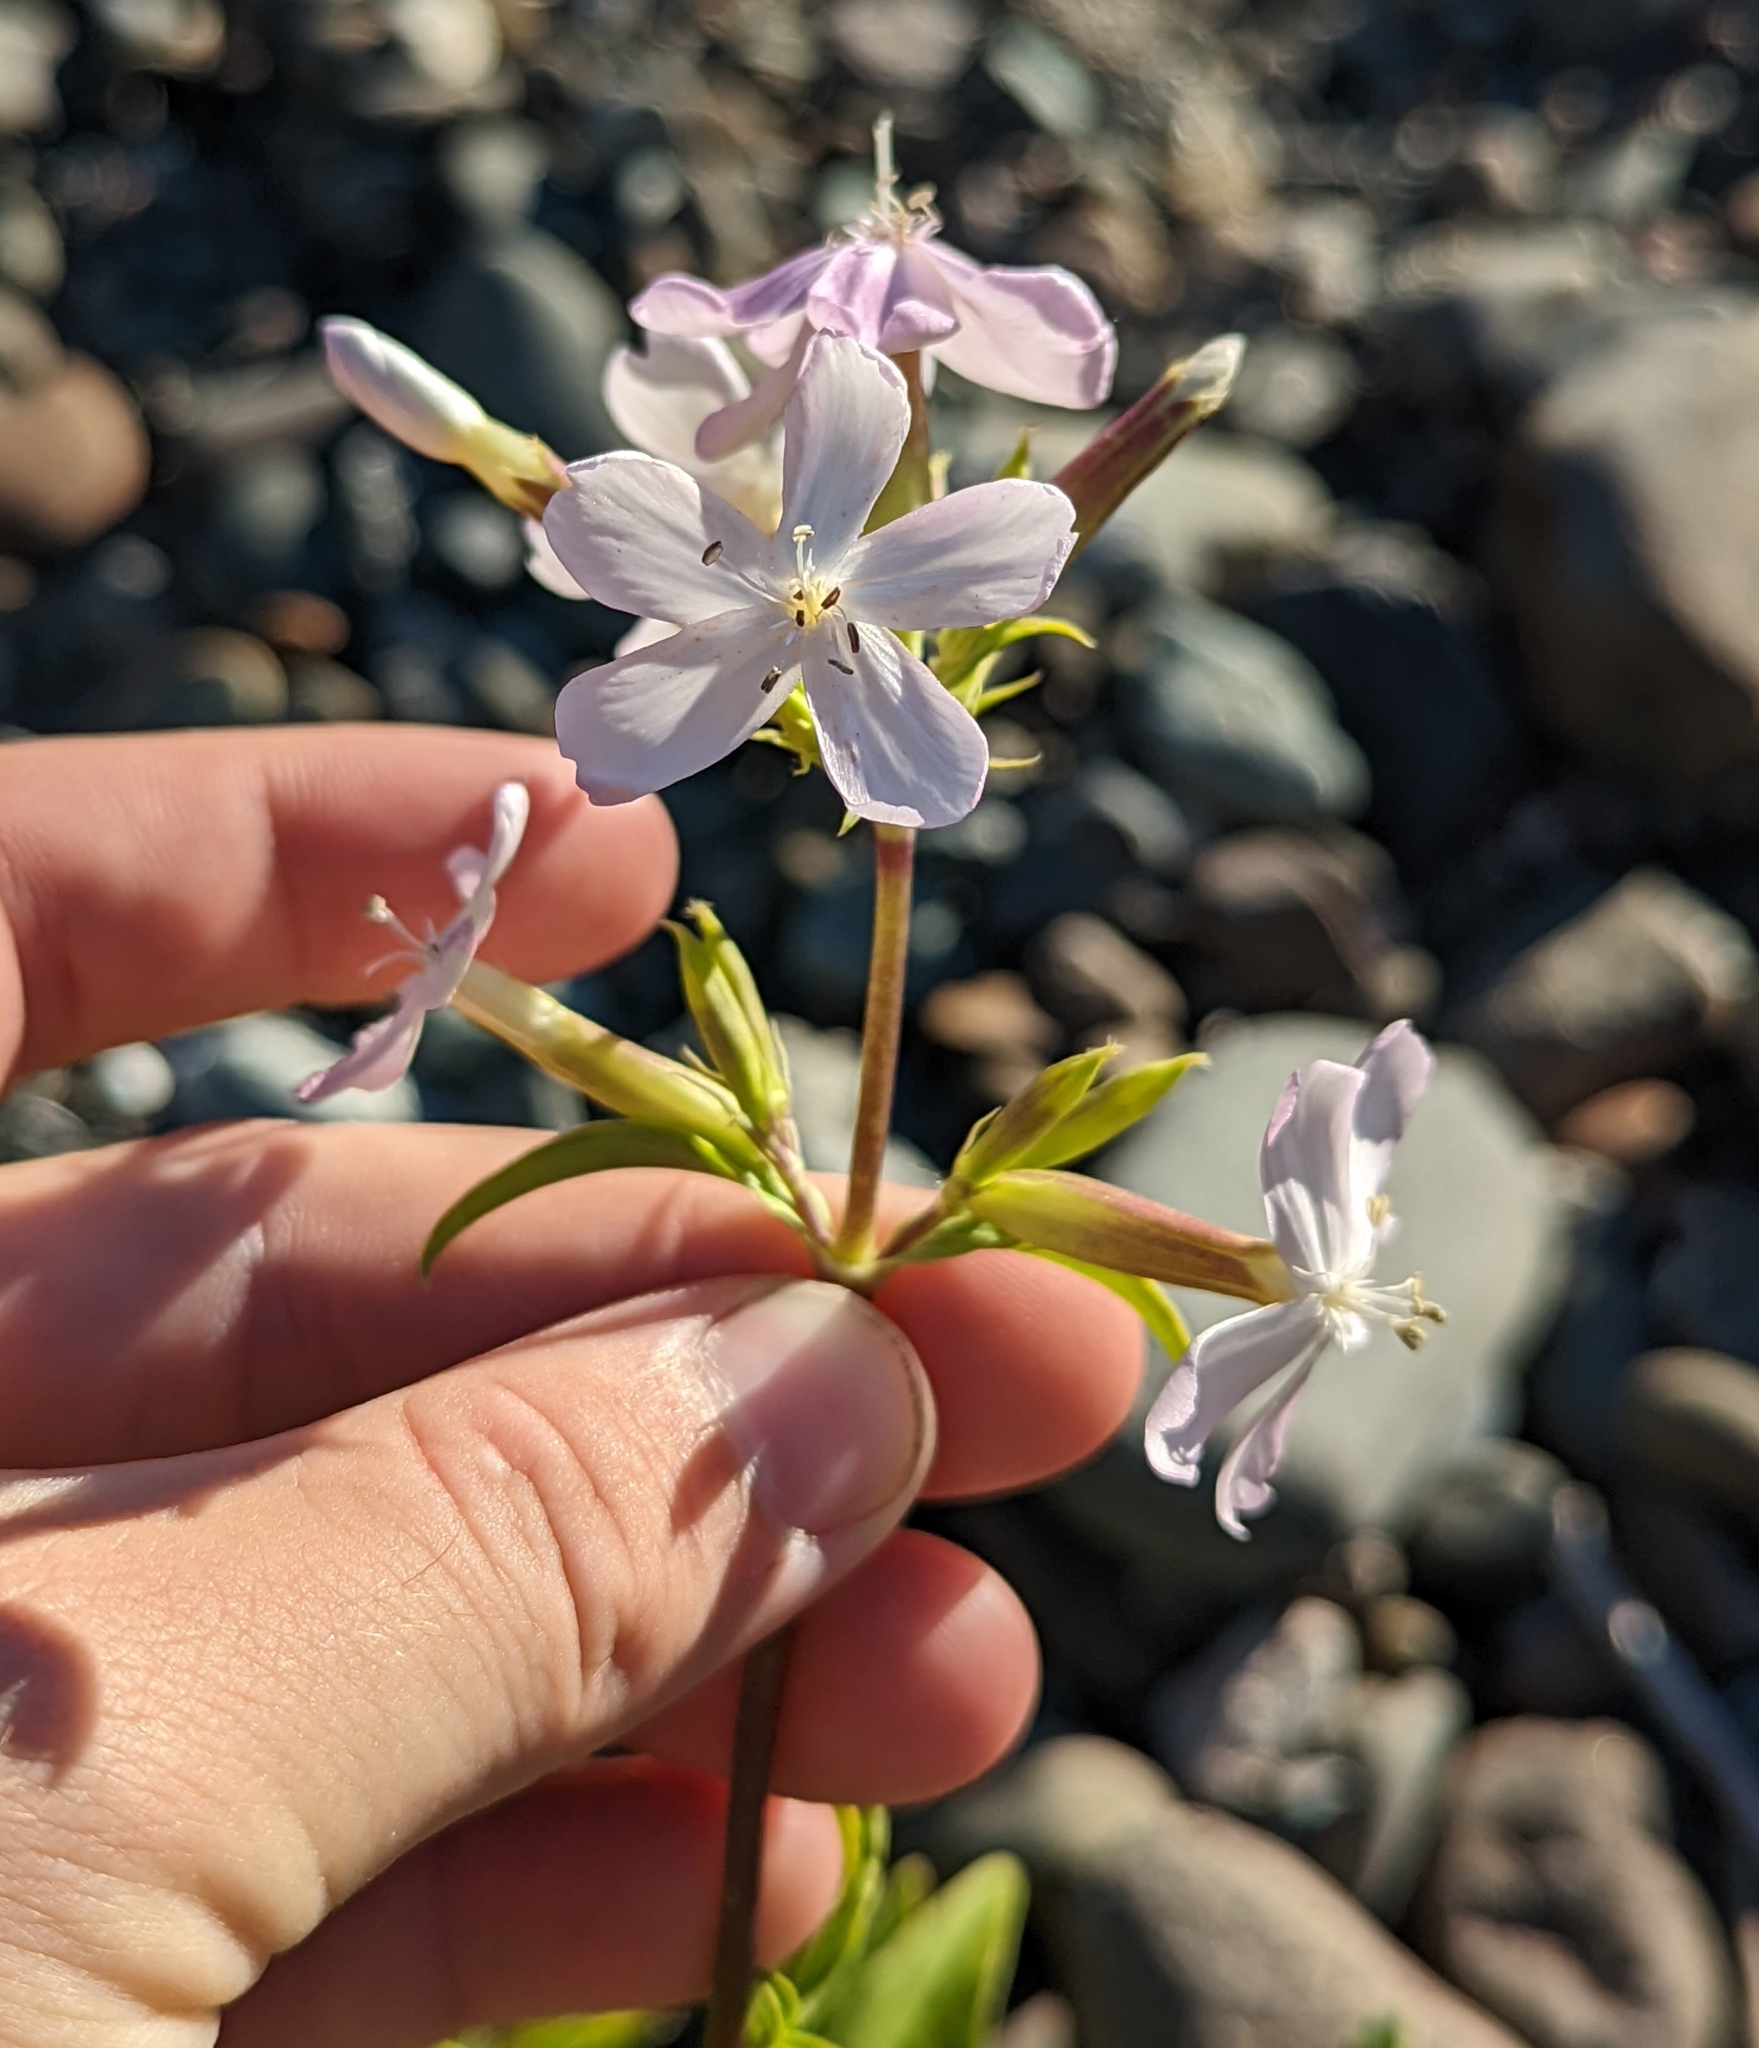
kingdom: Plantae
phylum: Tracheophyta
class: Magnoliopsida
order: Caryophyllales
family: Caryophyllaceae
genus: Saponaria
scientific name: Saponaria officinalis
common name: Soapwort
